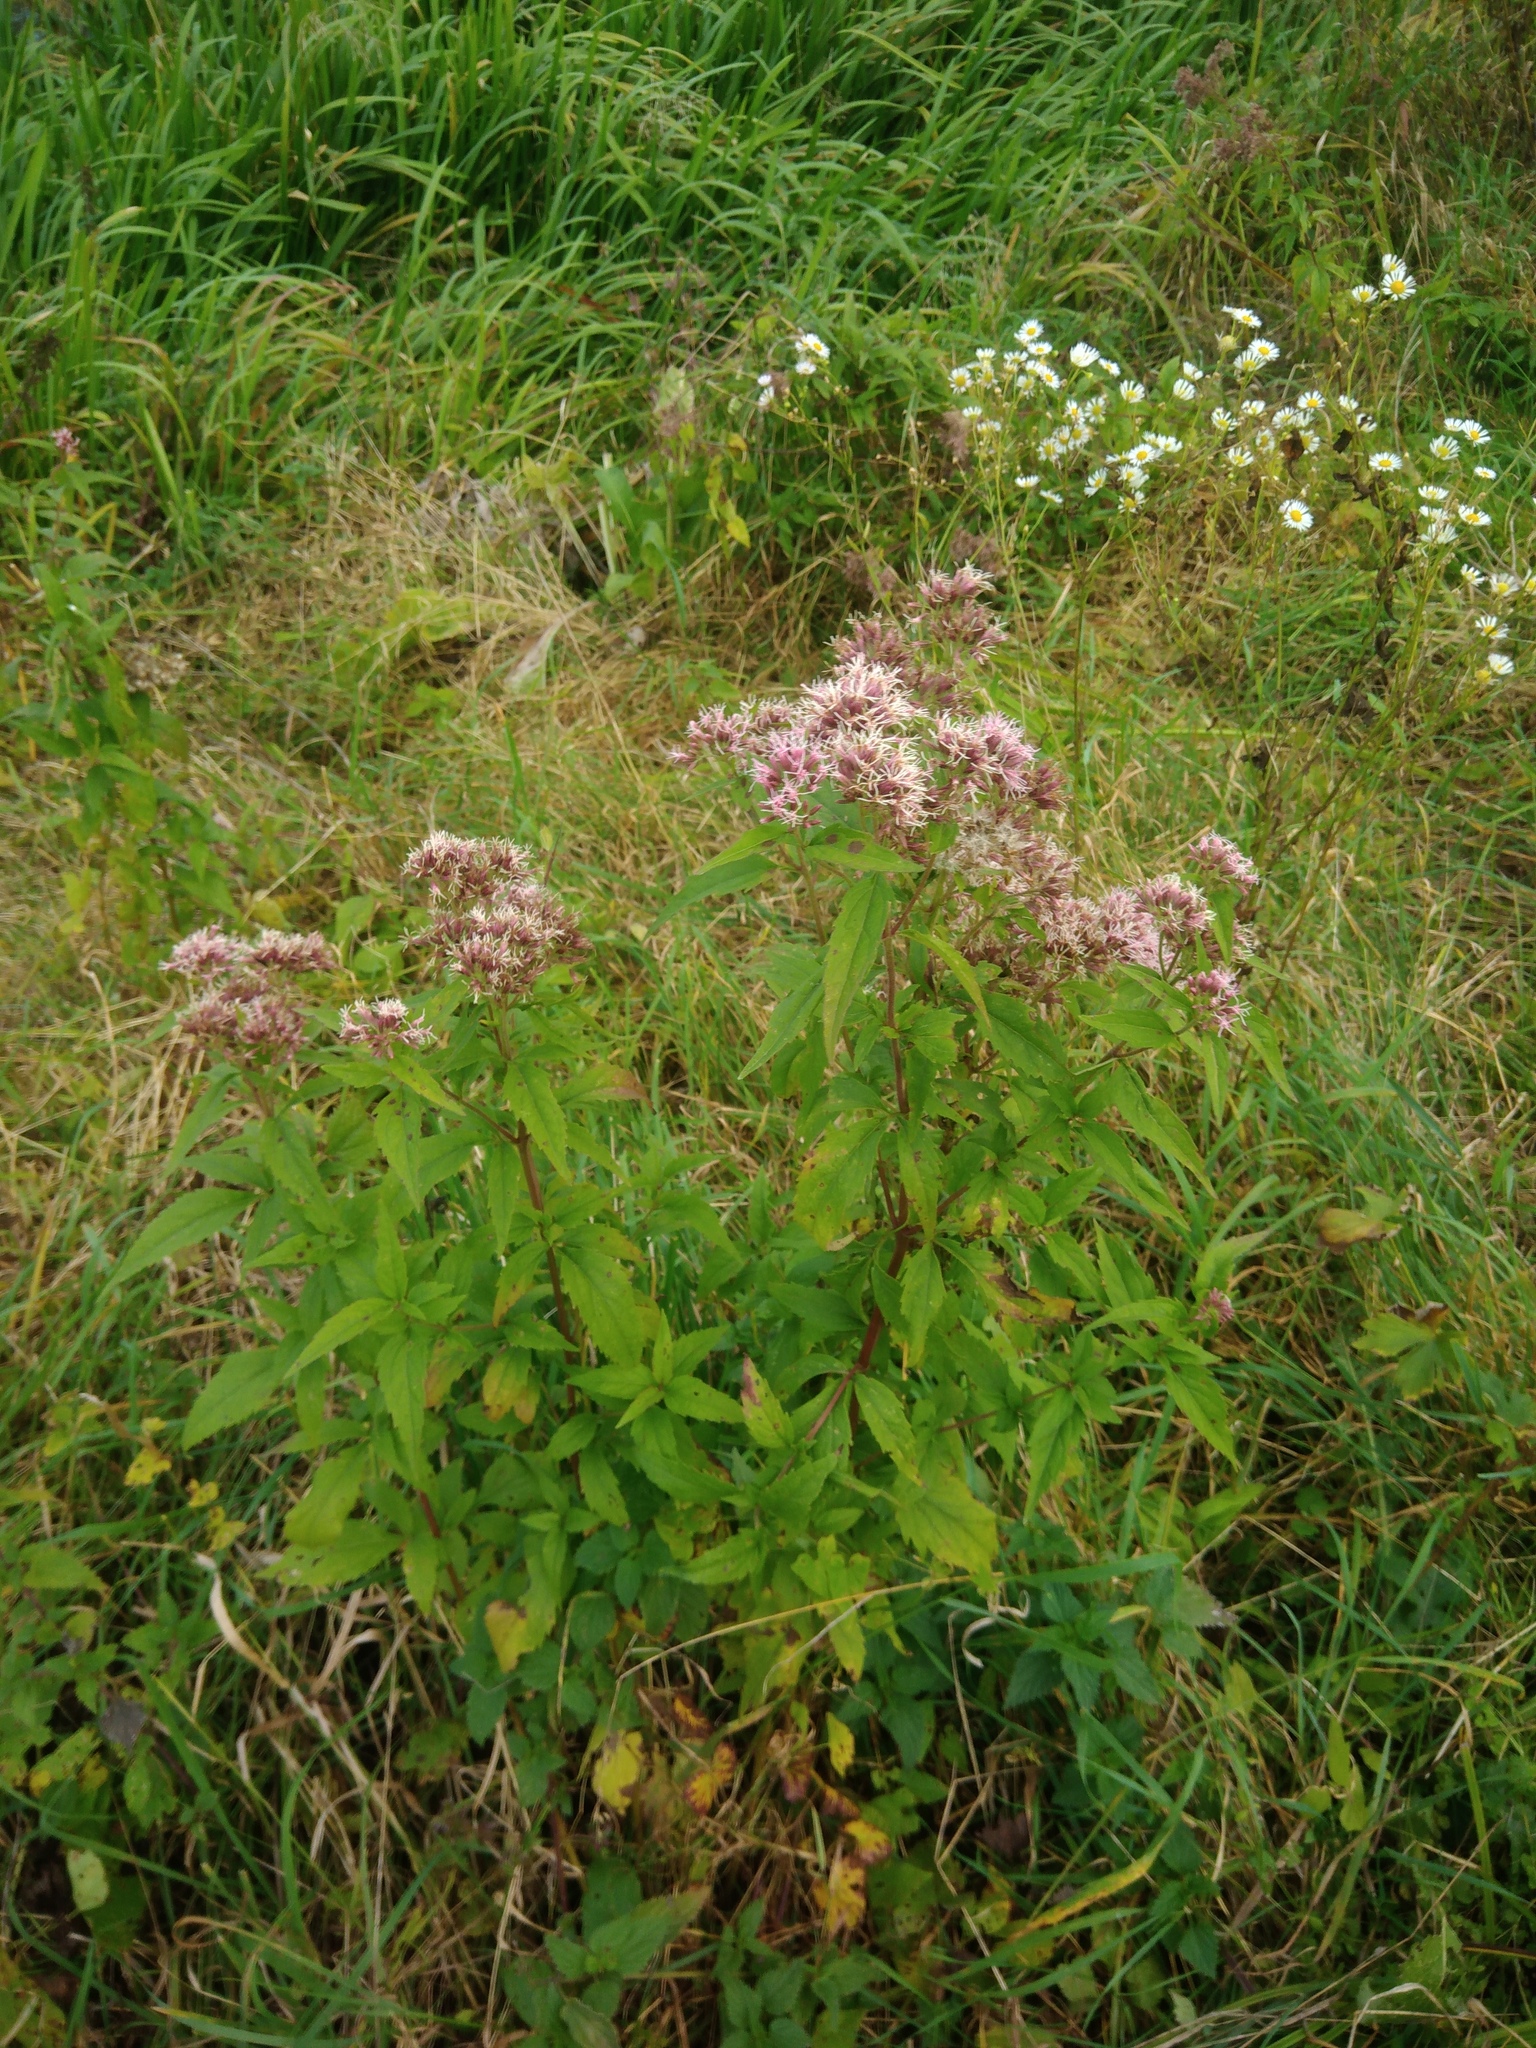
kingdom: Plantae
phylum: Tracheophyta
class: Magnoliopsida
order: Asterales
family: Asteraceae
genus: Eupatorium
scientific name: Eupatorium cannabinum
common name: Hemp-agrimony
